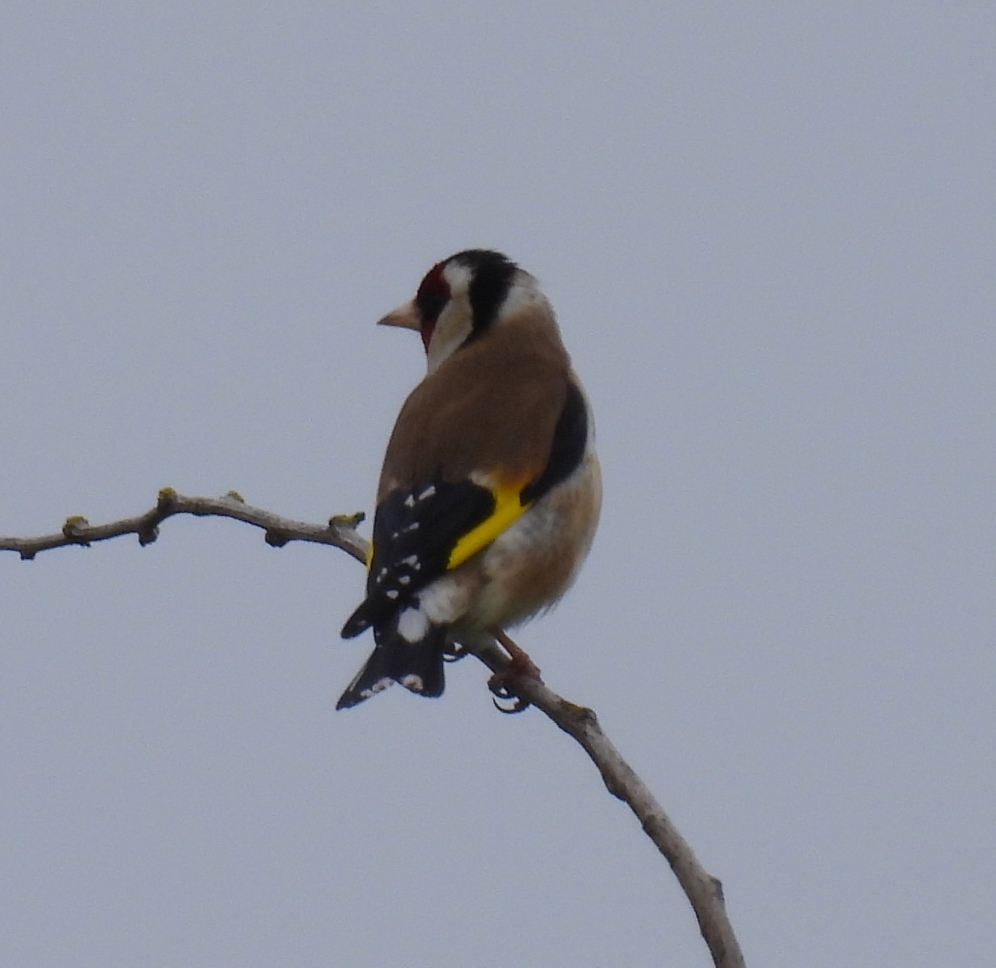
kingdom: Animalia
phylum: Chordata
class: Aves
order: Passeriformes
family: Fringillidae
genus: Carduelis
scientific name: Carduelis carduelis
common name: European goldfinch
